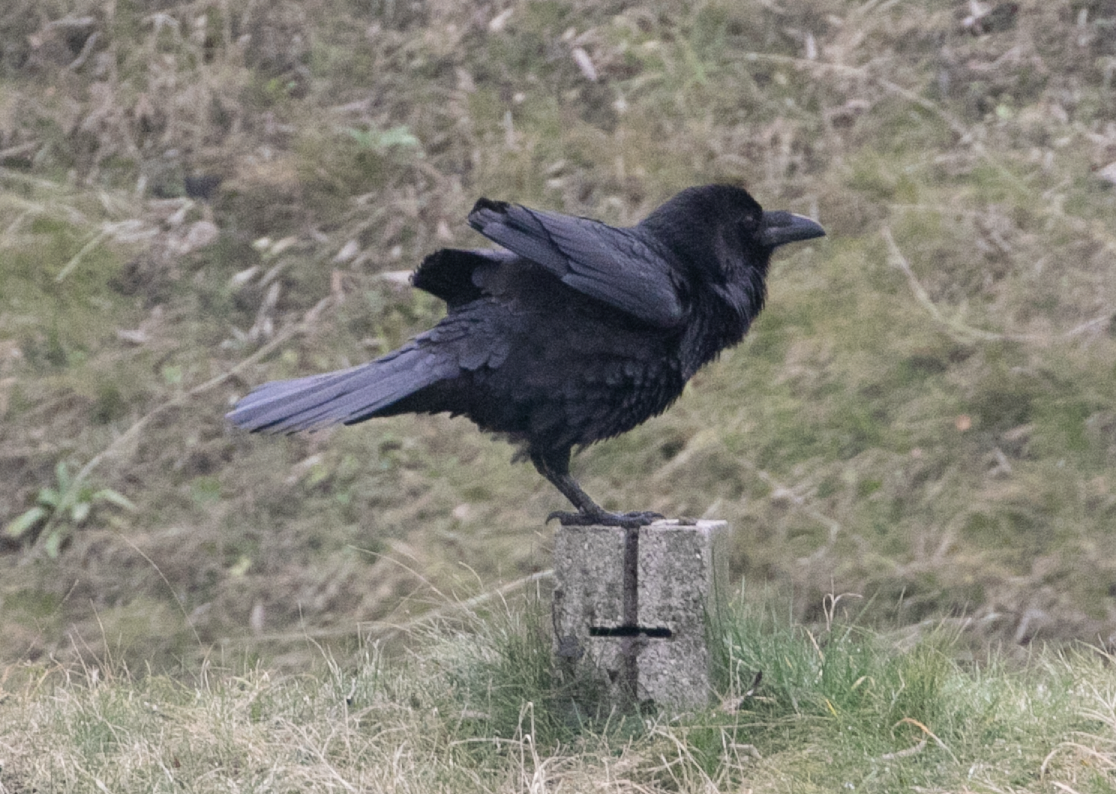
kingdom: Animalia
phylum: Chordata
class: Aves
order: Passeriformes
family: Corvidae
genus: Corvus
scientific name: Corvus corax
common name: Common raven
